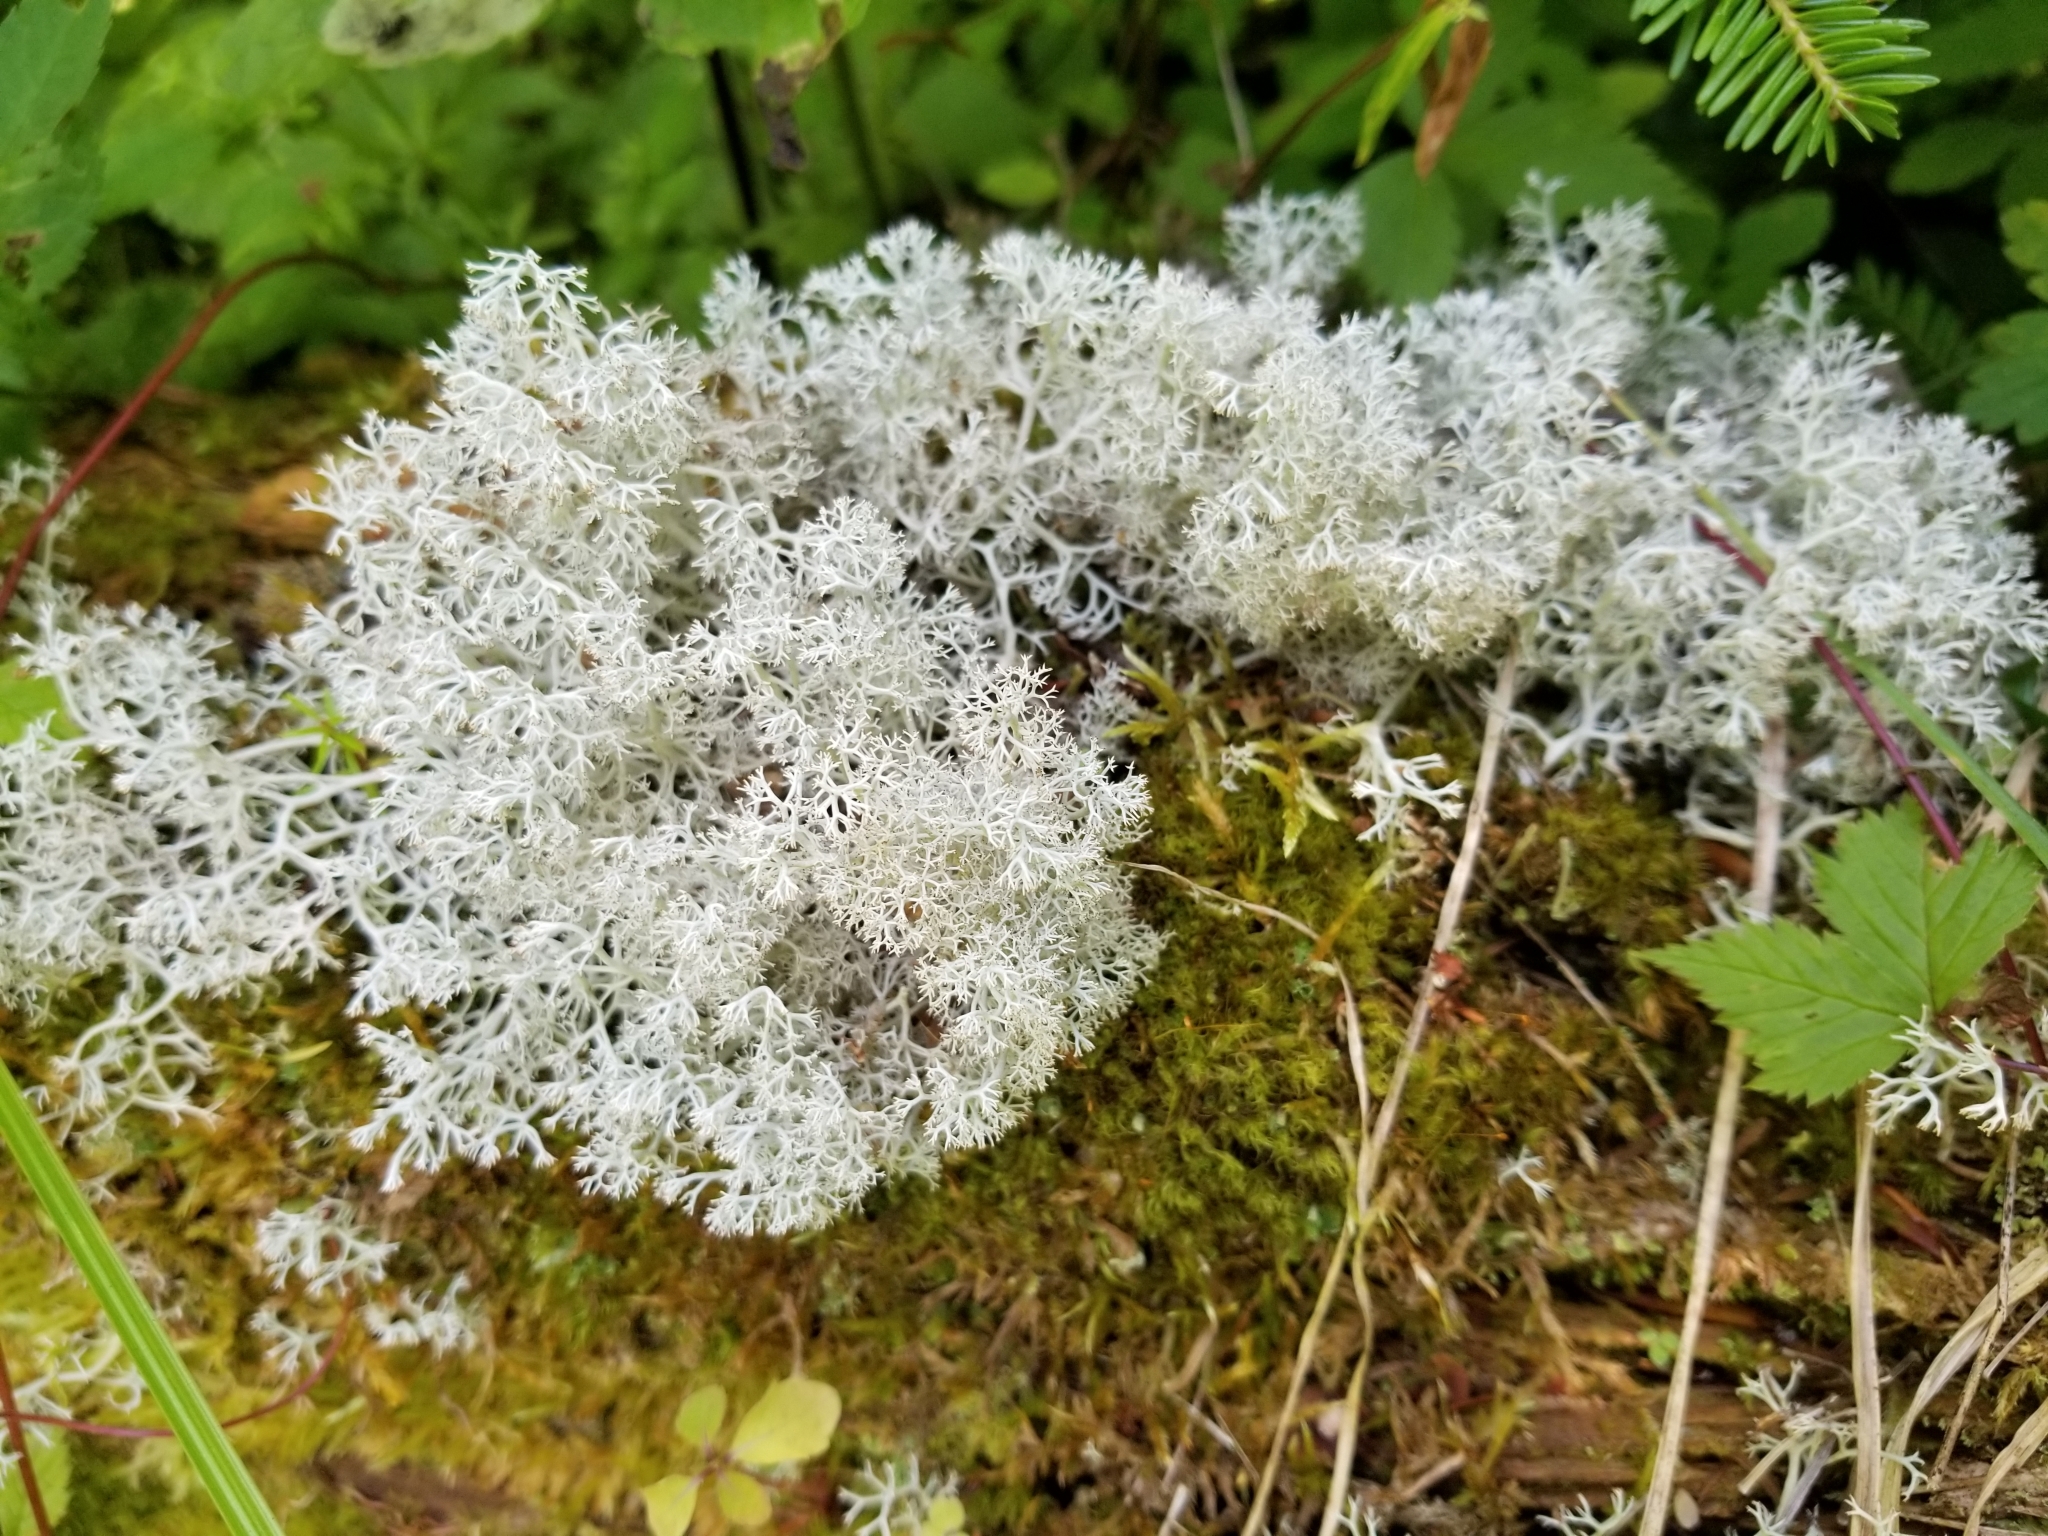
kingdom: Fungi
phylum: Ascomycota
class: Lecanoromycetes
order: Lecanorales
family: Cladoniaceae
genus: Cladonia
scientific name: Cladonia rangiferina
